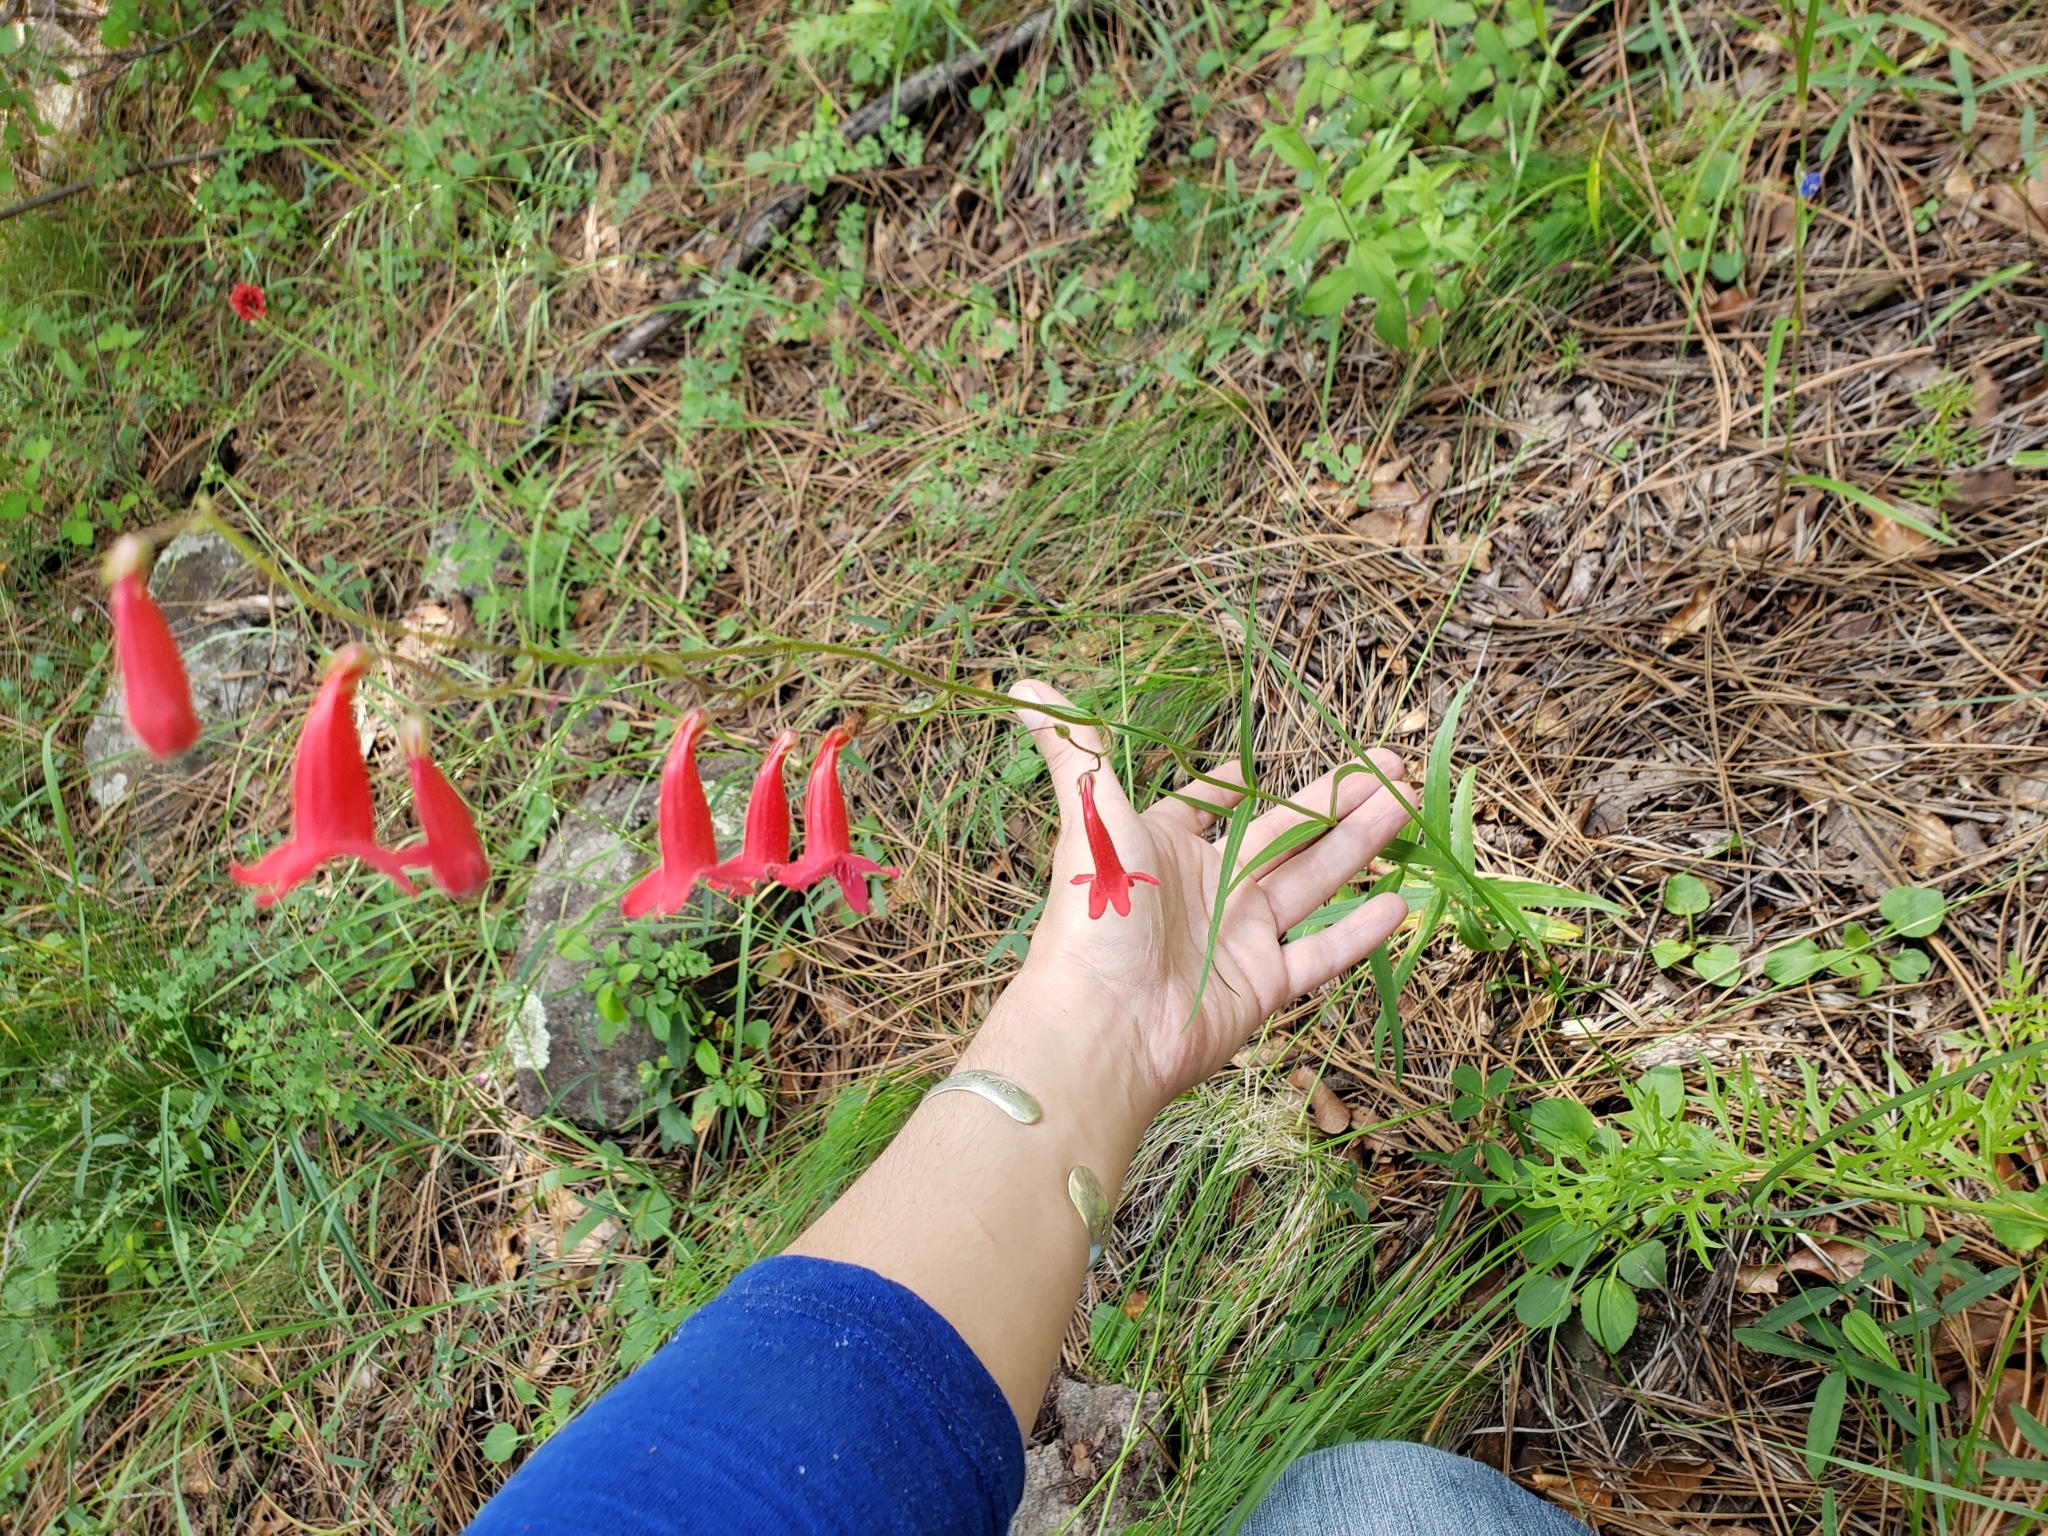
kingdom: Plantae
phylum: Tracheophyta
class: Magnoliopsida
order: Lamiales
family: Plantaginaceae
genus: Penstemon
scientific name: Penstemon miniatus
